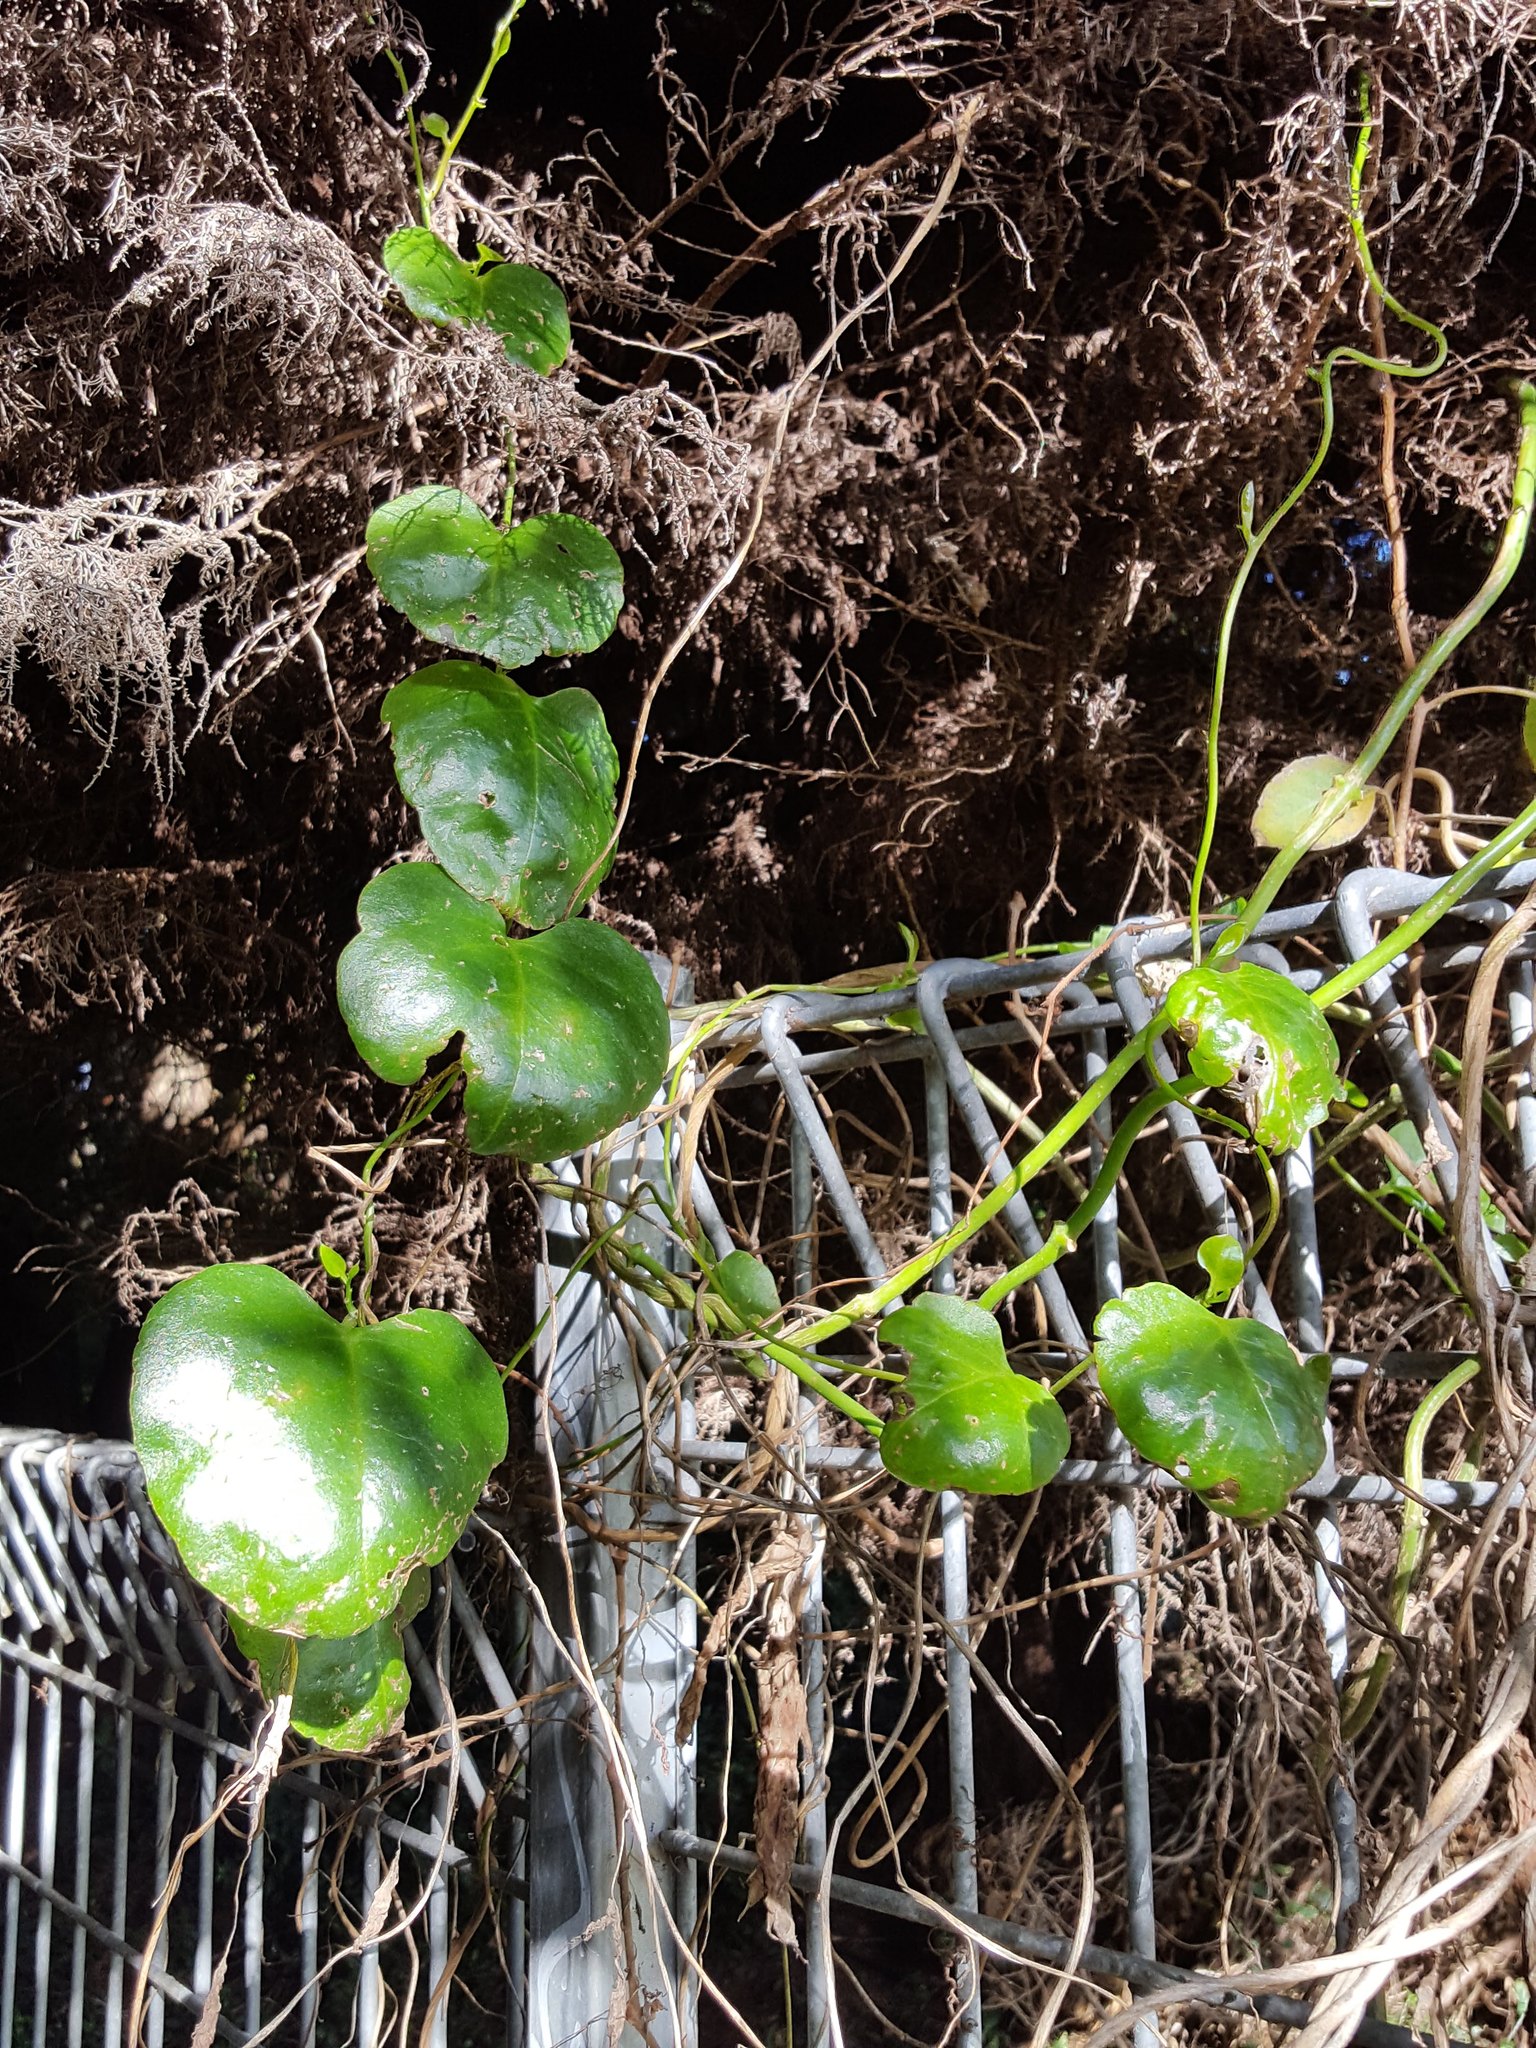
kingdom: Plantae
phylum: Tracheophyta
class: Magnoliopsida
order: Caryophyllales
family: Basellaceae
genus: Anredera
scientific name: Anredera cordifolia
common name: Heartleaf madeiravine
